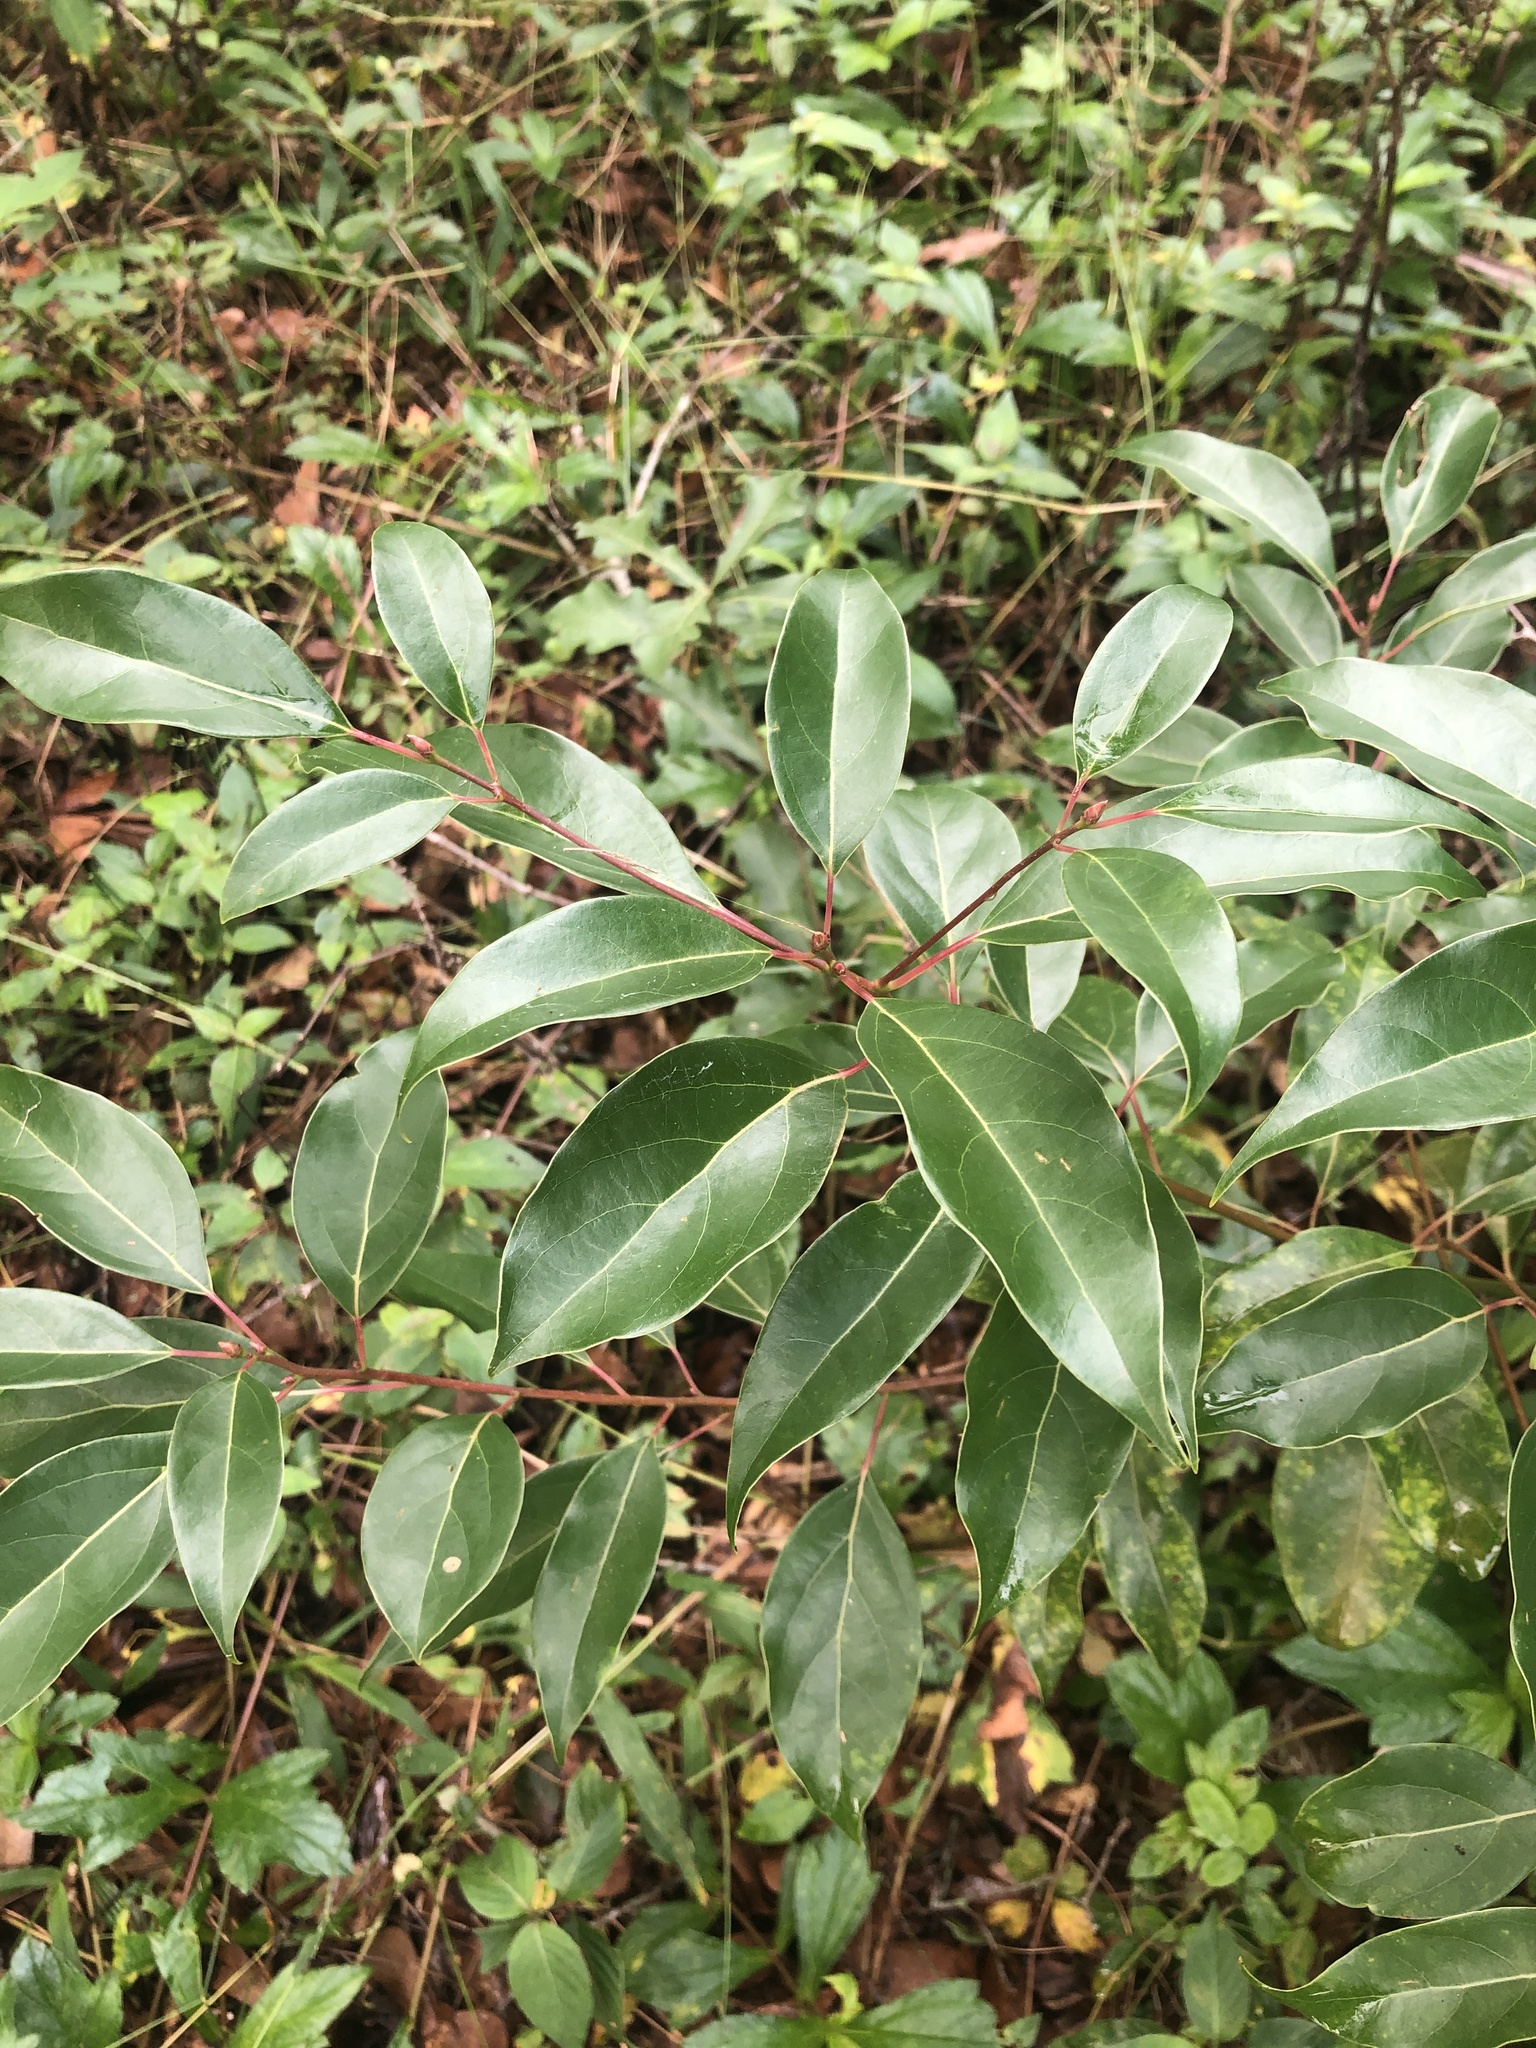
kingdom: Plantae
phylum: Tracheophyta
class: Magnoliopsida
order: Laurales
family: Lauraceae
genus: Cinnamomum
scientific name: Cinnamomum camphora
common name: Camphortree
